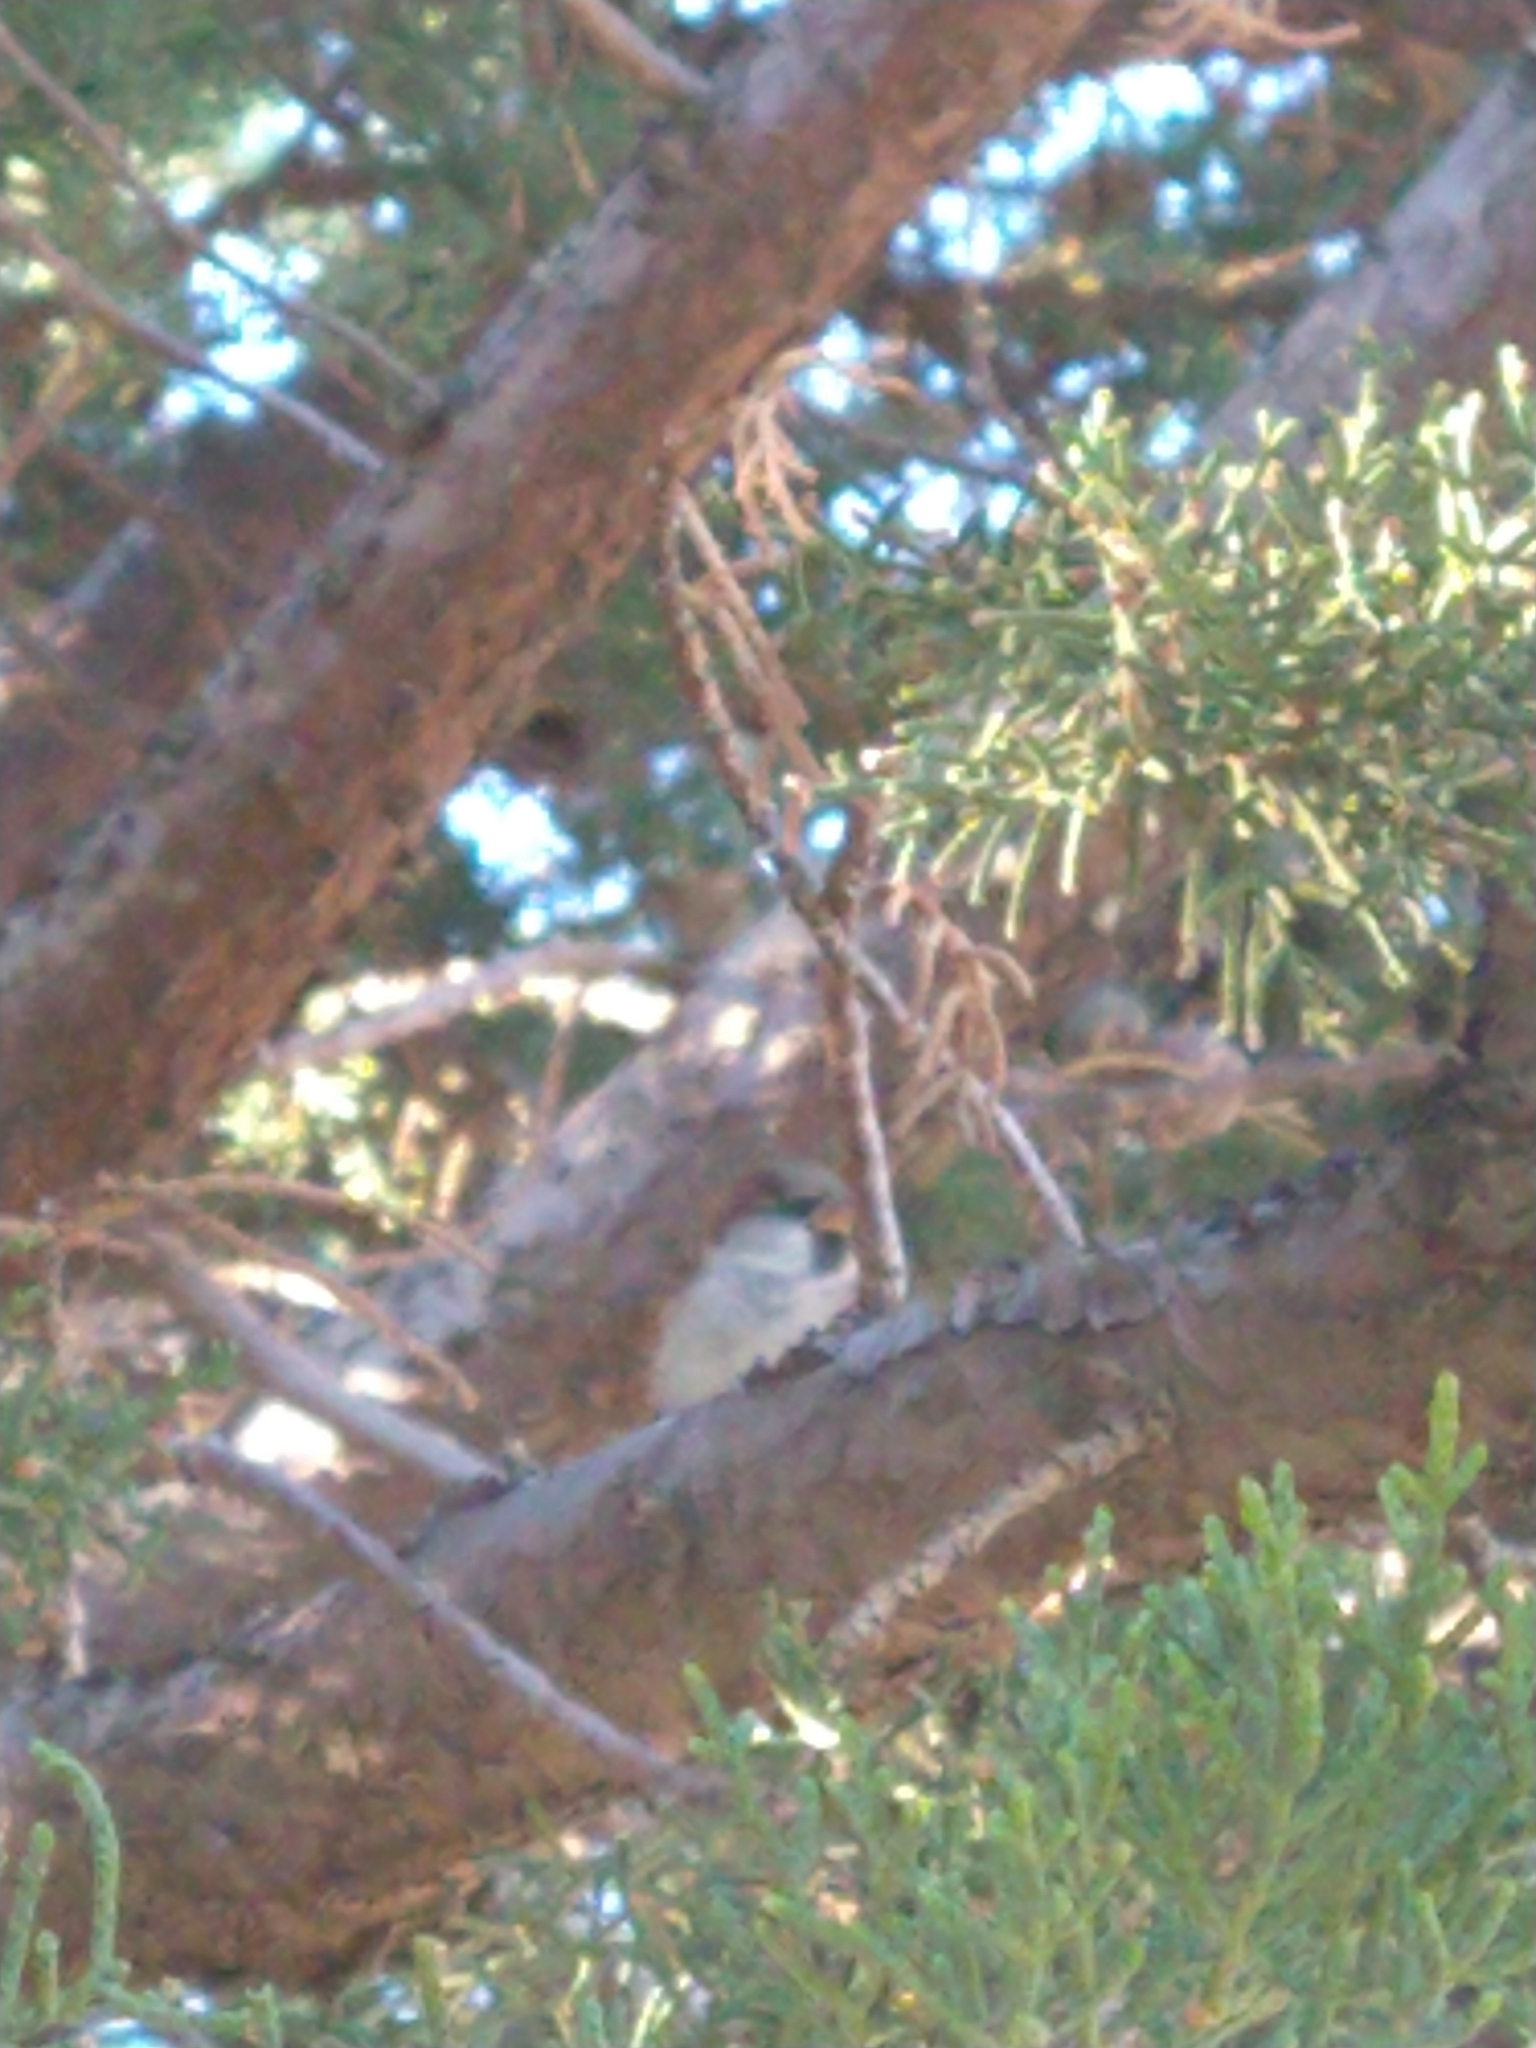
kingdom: Animalia
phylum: Chordata
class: Aves
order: Passeriformes
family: Passeridae
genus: Passer
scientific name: Passer domesticus
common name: House sparrow
